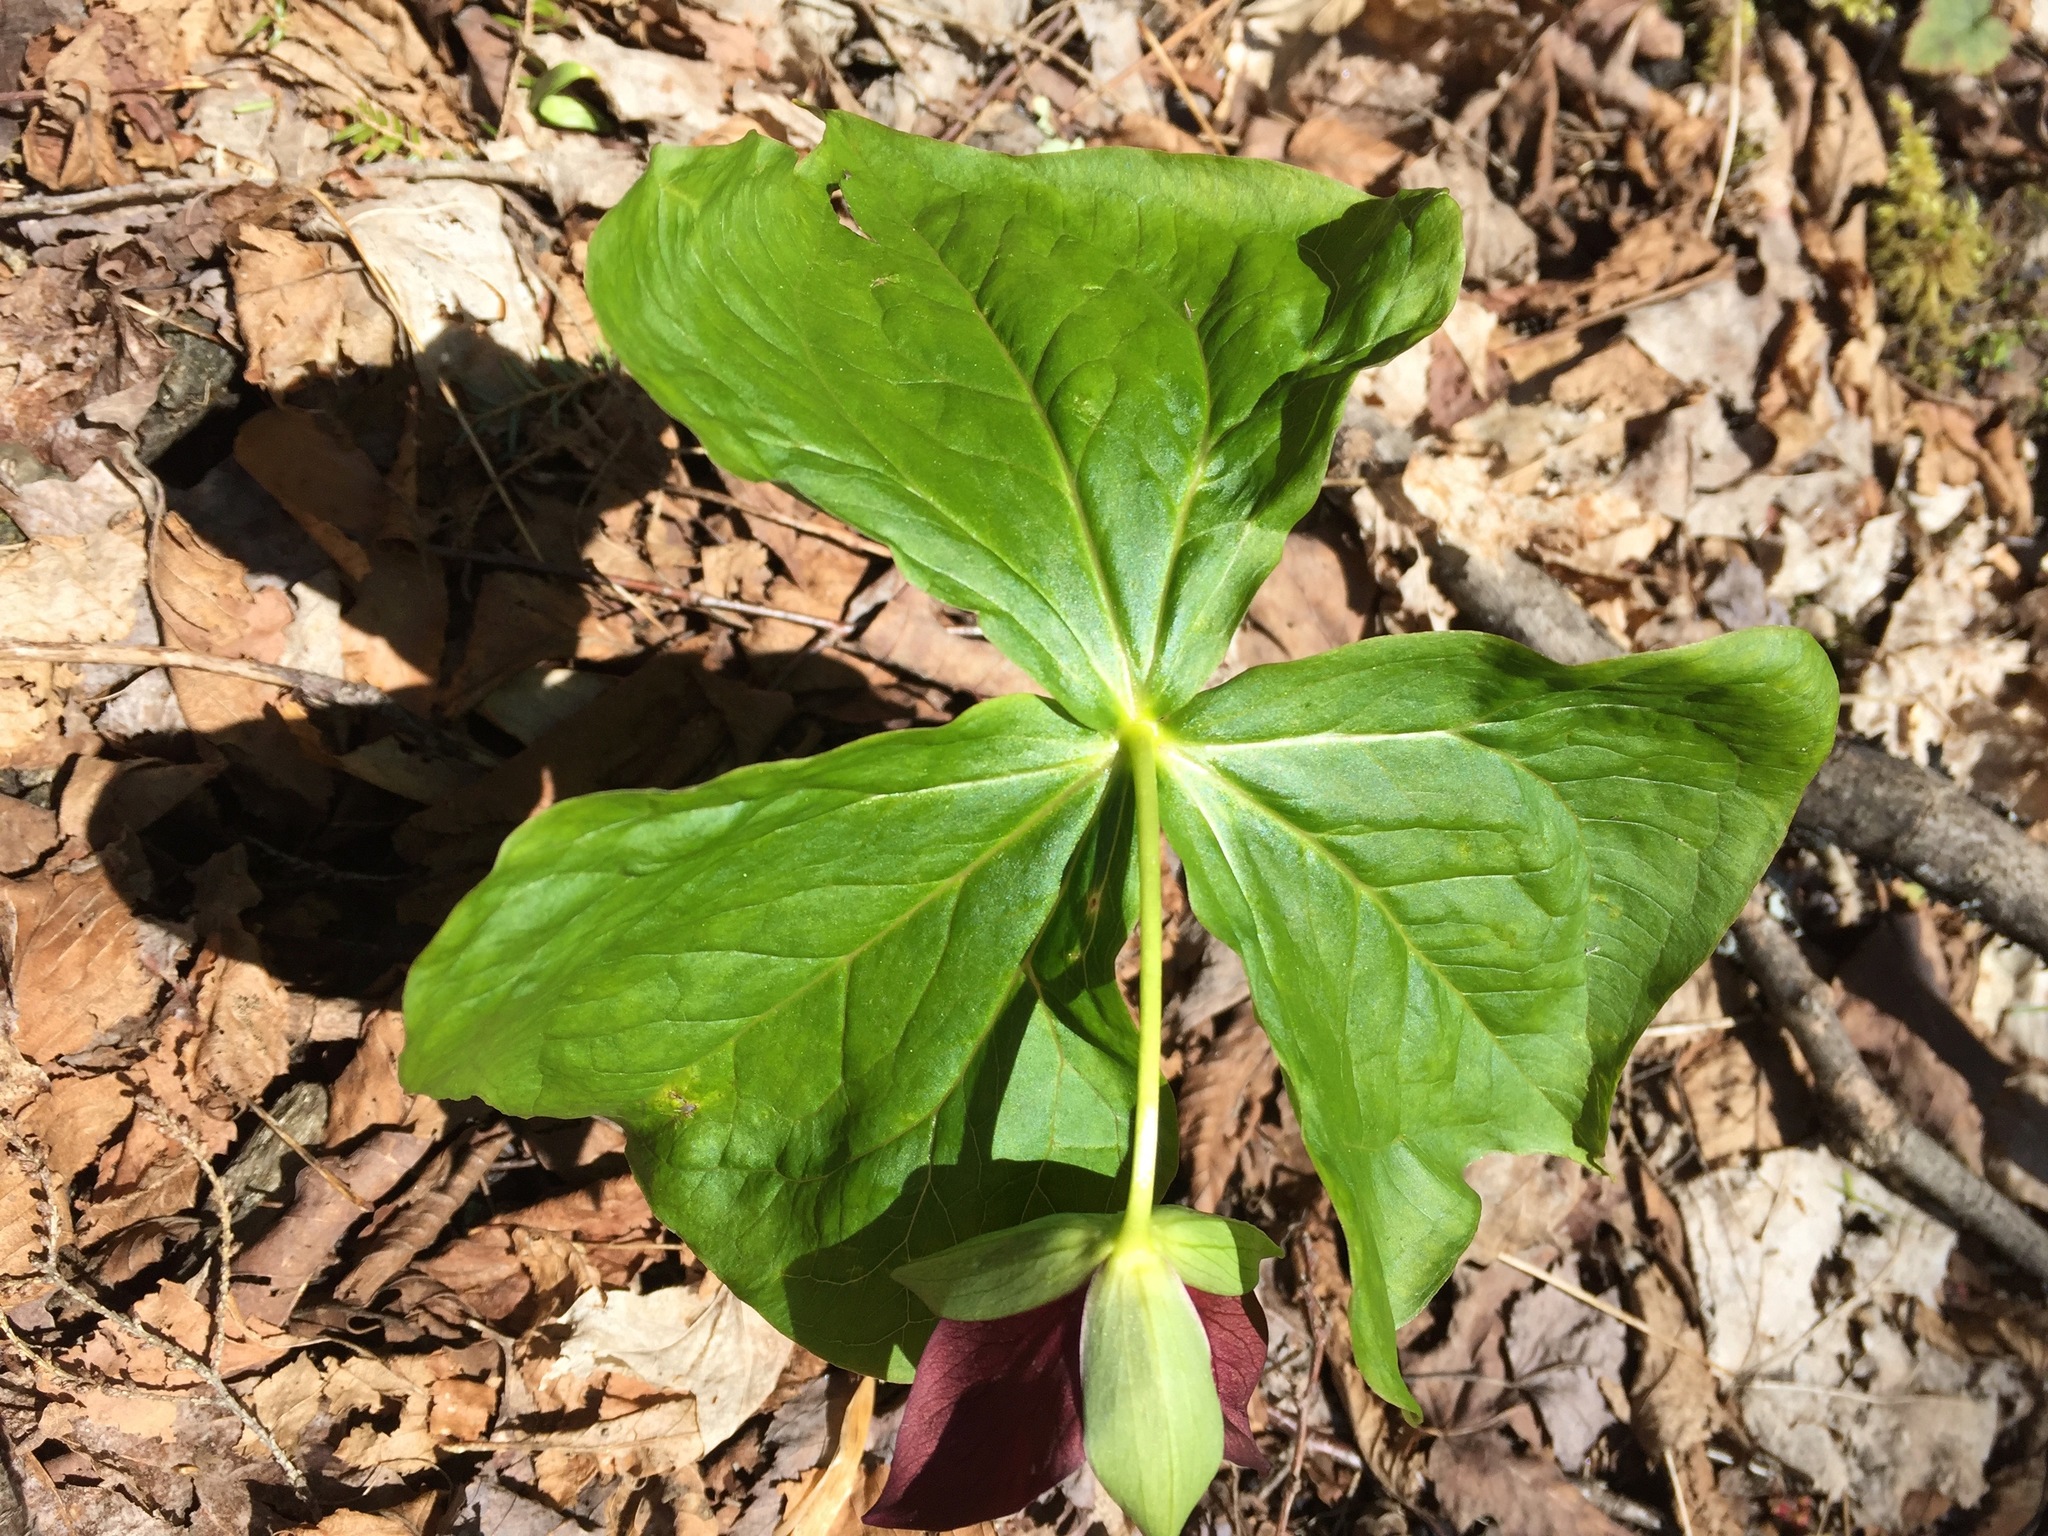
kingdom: Plantae
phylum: Tracheophyta
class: Liliopsida
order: Liliales
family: Melanthiaceae
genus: Trillium
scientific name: Trillium erectum
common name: Purple trillium
